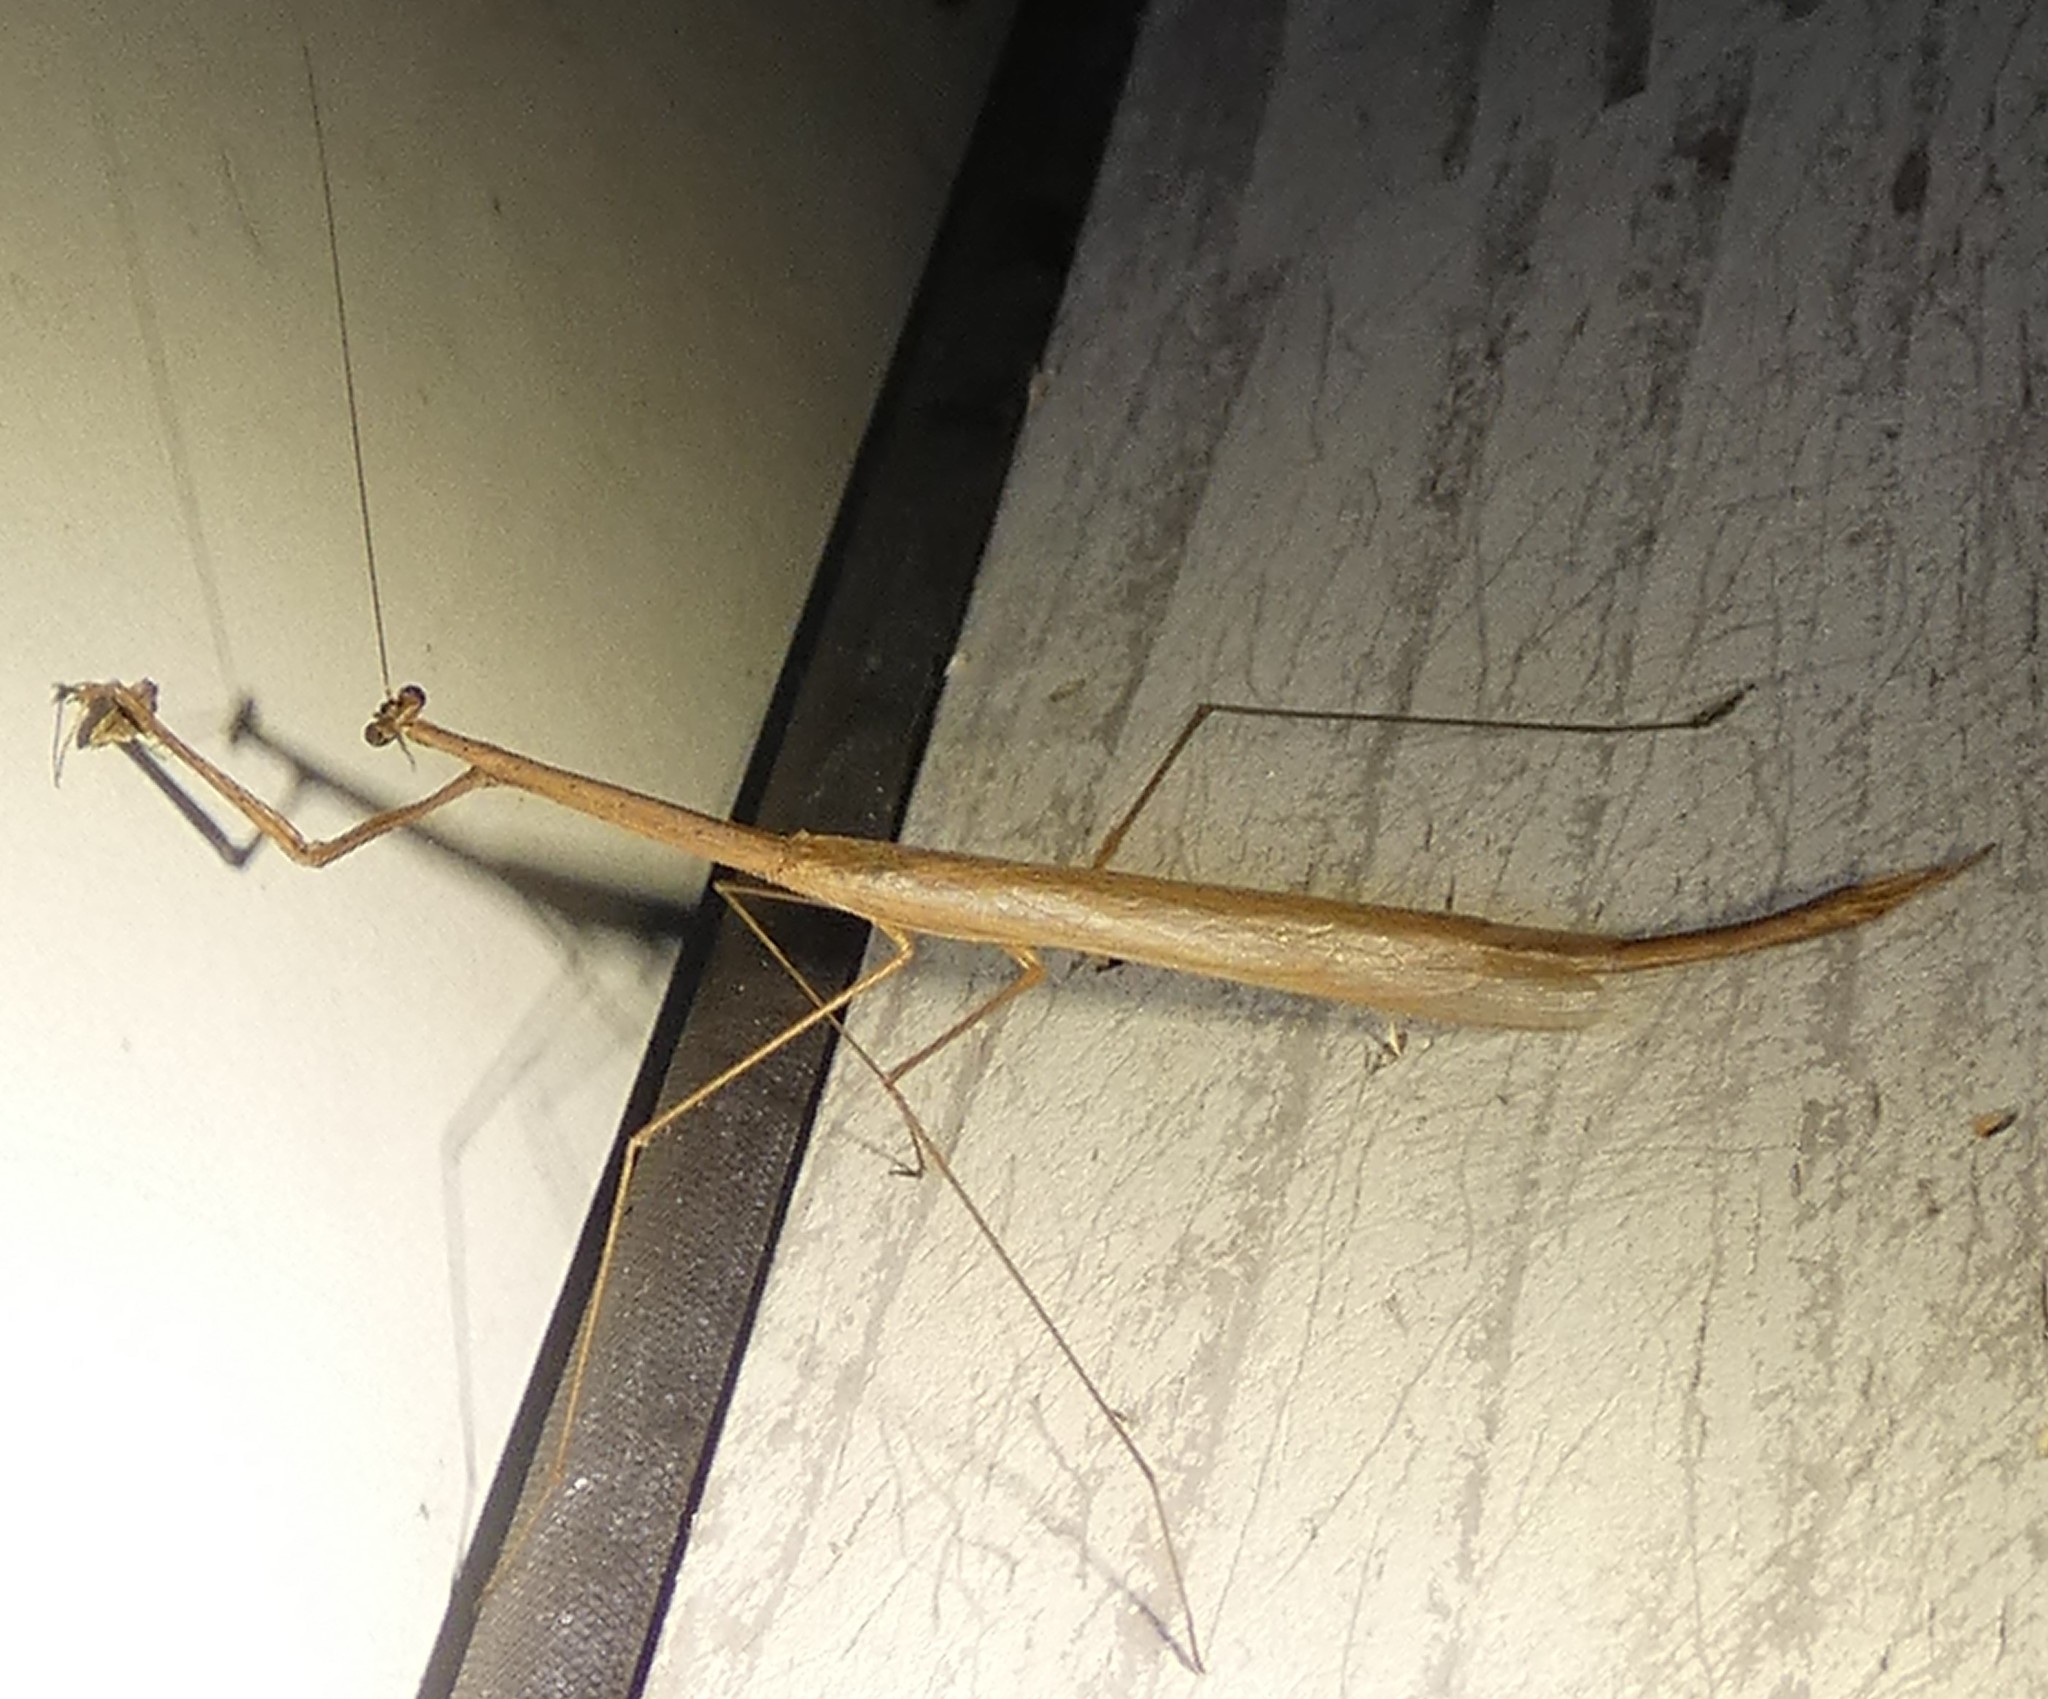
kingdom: Animalia
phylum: Arthropoda
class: Insecta
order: Mantodea
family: Thespidae
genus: Thesprotia
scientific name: Thesprotia graminis
